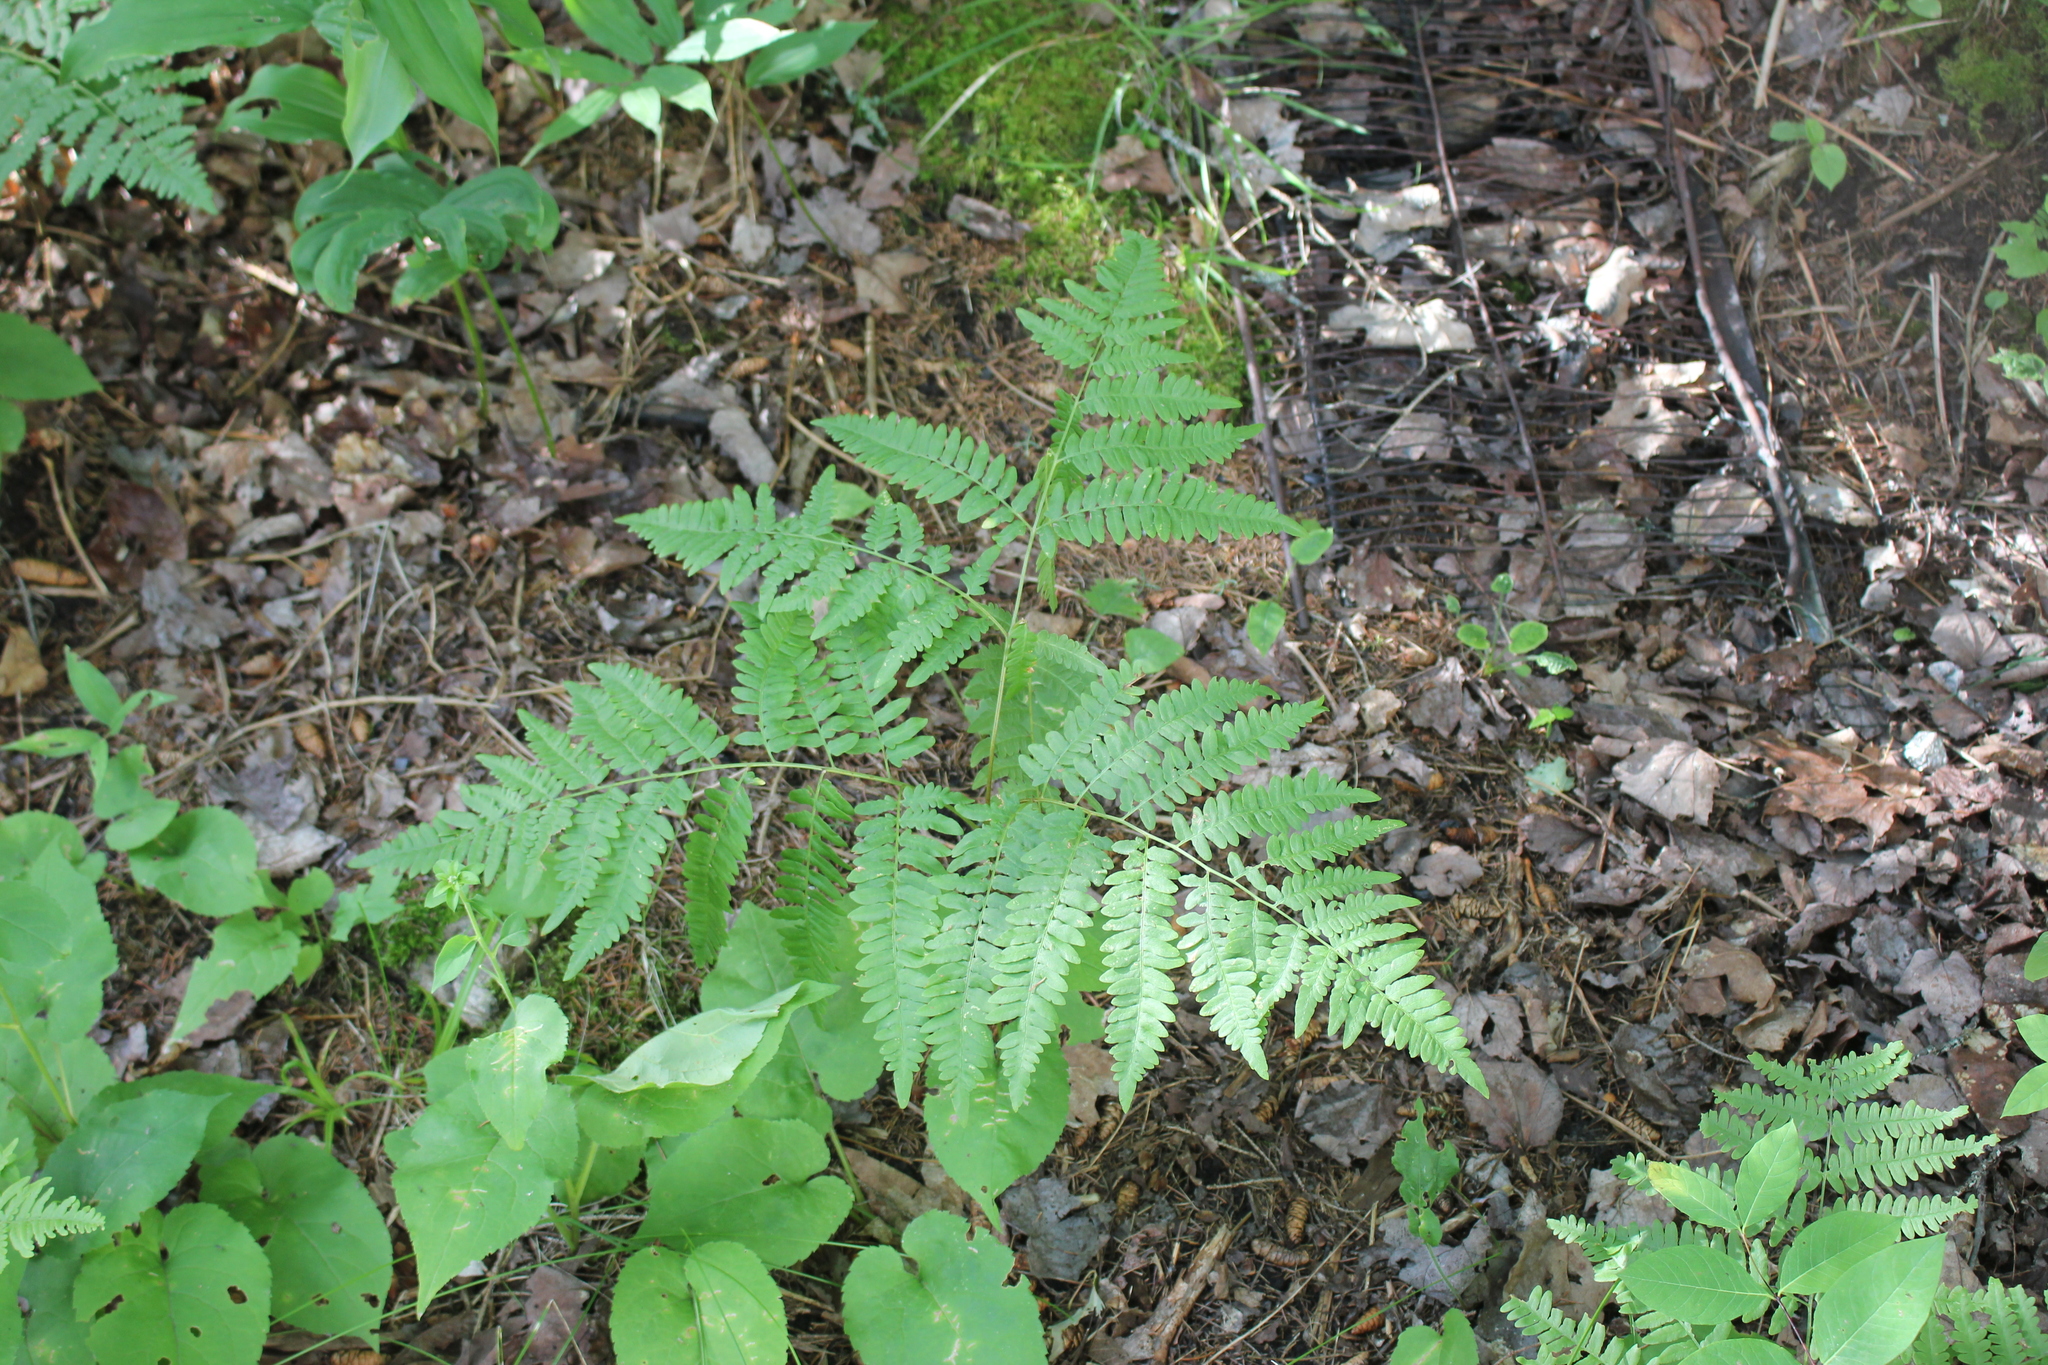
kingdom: Plantae
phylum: Tracheophyta
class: Polypodiopsida
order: Polypodiales
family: Dennstaedtiaceae
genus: Pteridium
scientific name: Pteridium aquilinum
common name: Bracken
